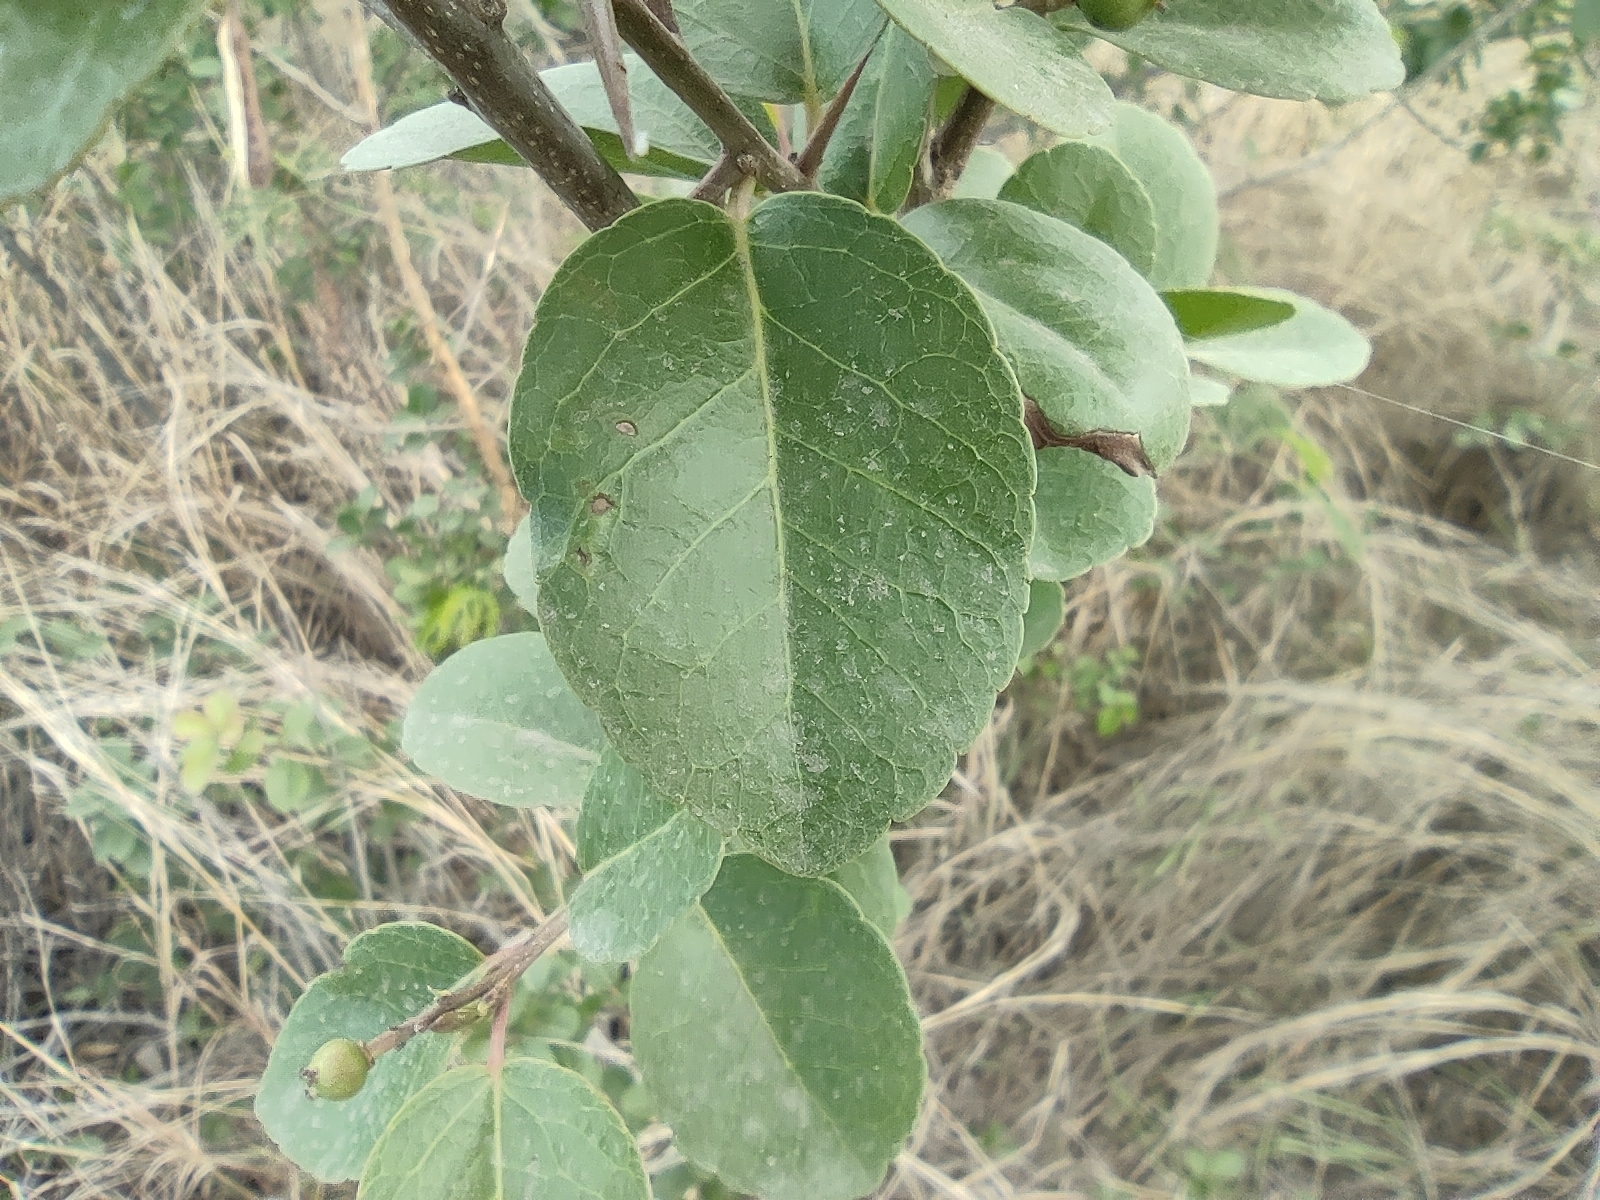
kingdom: Plantae
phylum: Tracheophyta
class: Magnoliopsida
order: Malpighiales
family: Salicaceae
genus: Flacourtia
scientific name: Flacourtia indica
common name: Governor's plum
